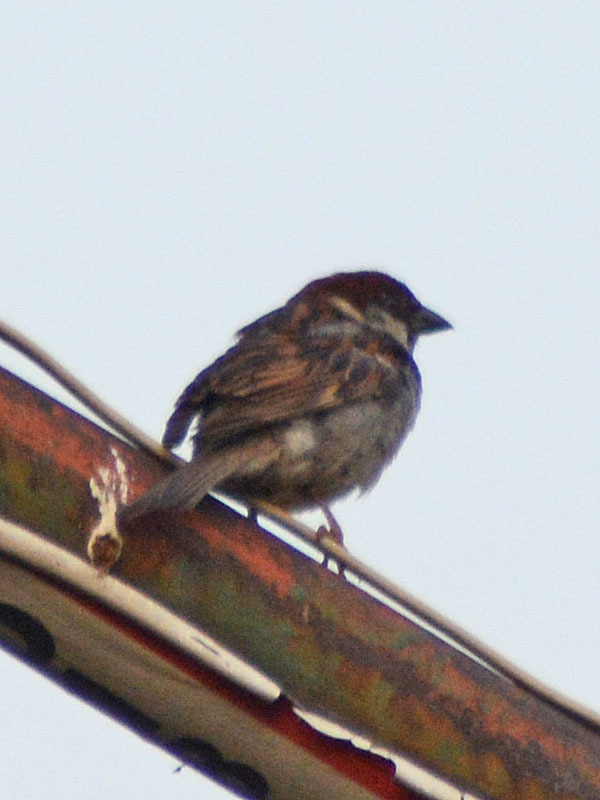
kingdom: Animalia
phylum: Chordata
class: Aves
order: Passeriformes
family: Passeridae
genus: Passer
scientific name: Passer domesticus
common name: House sparrow
